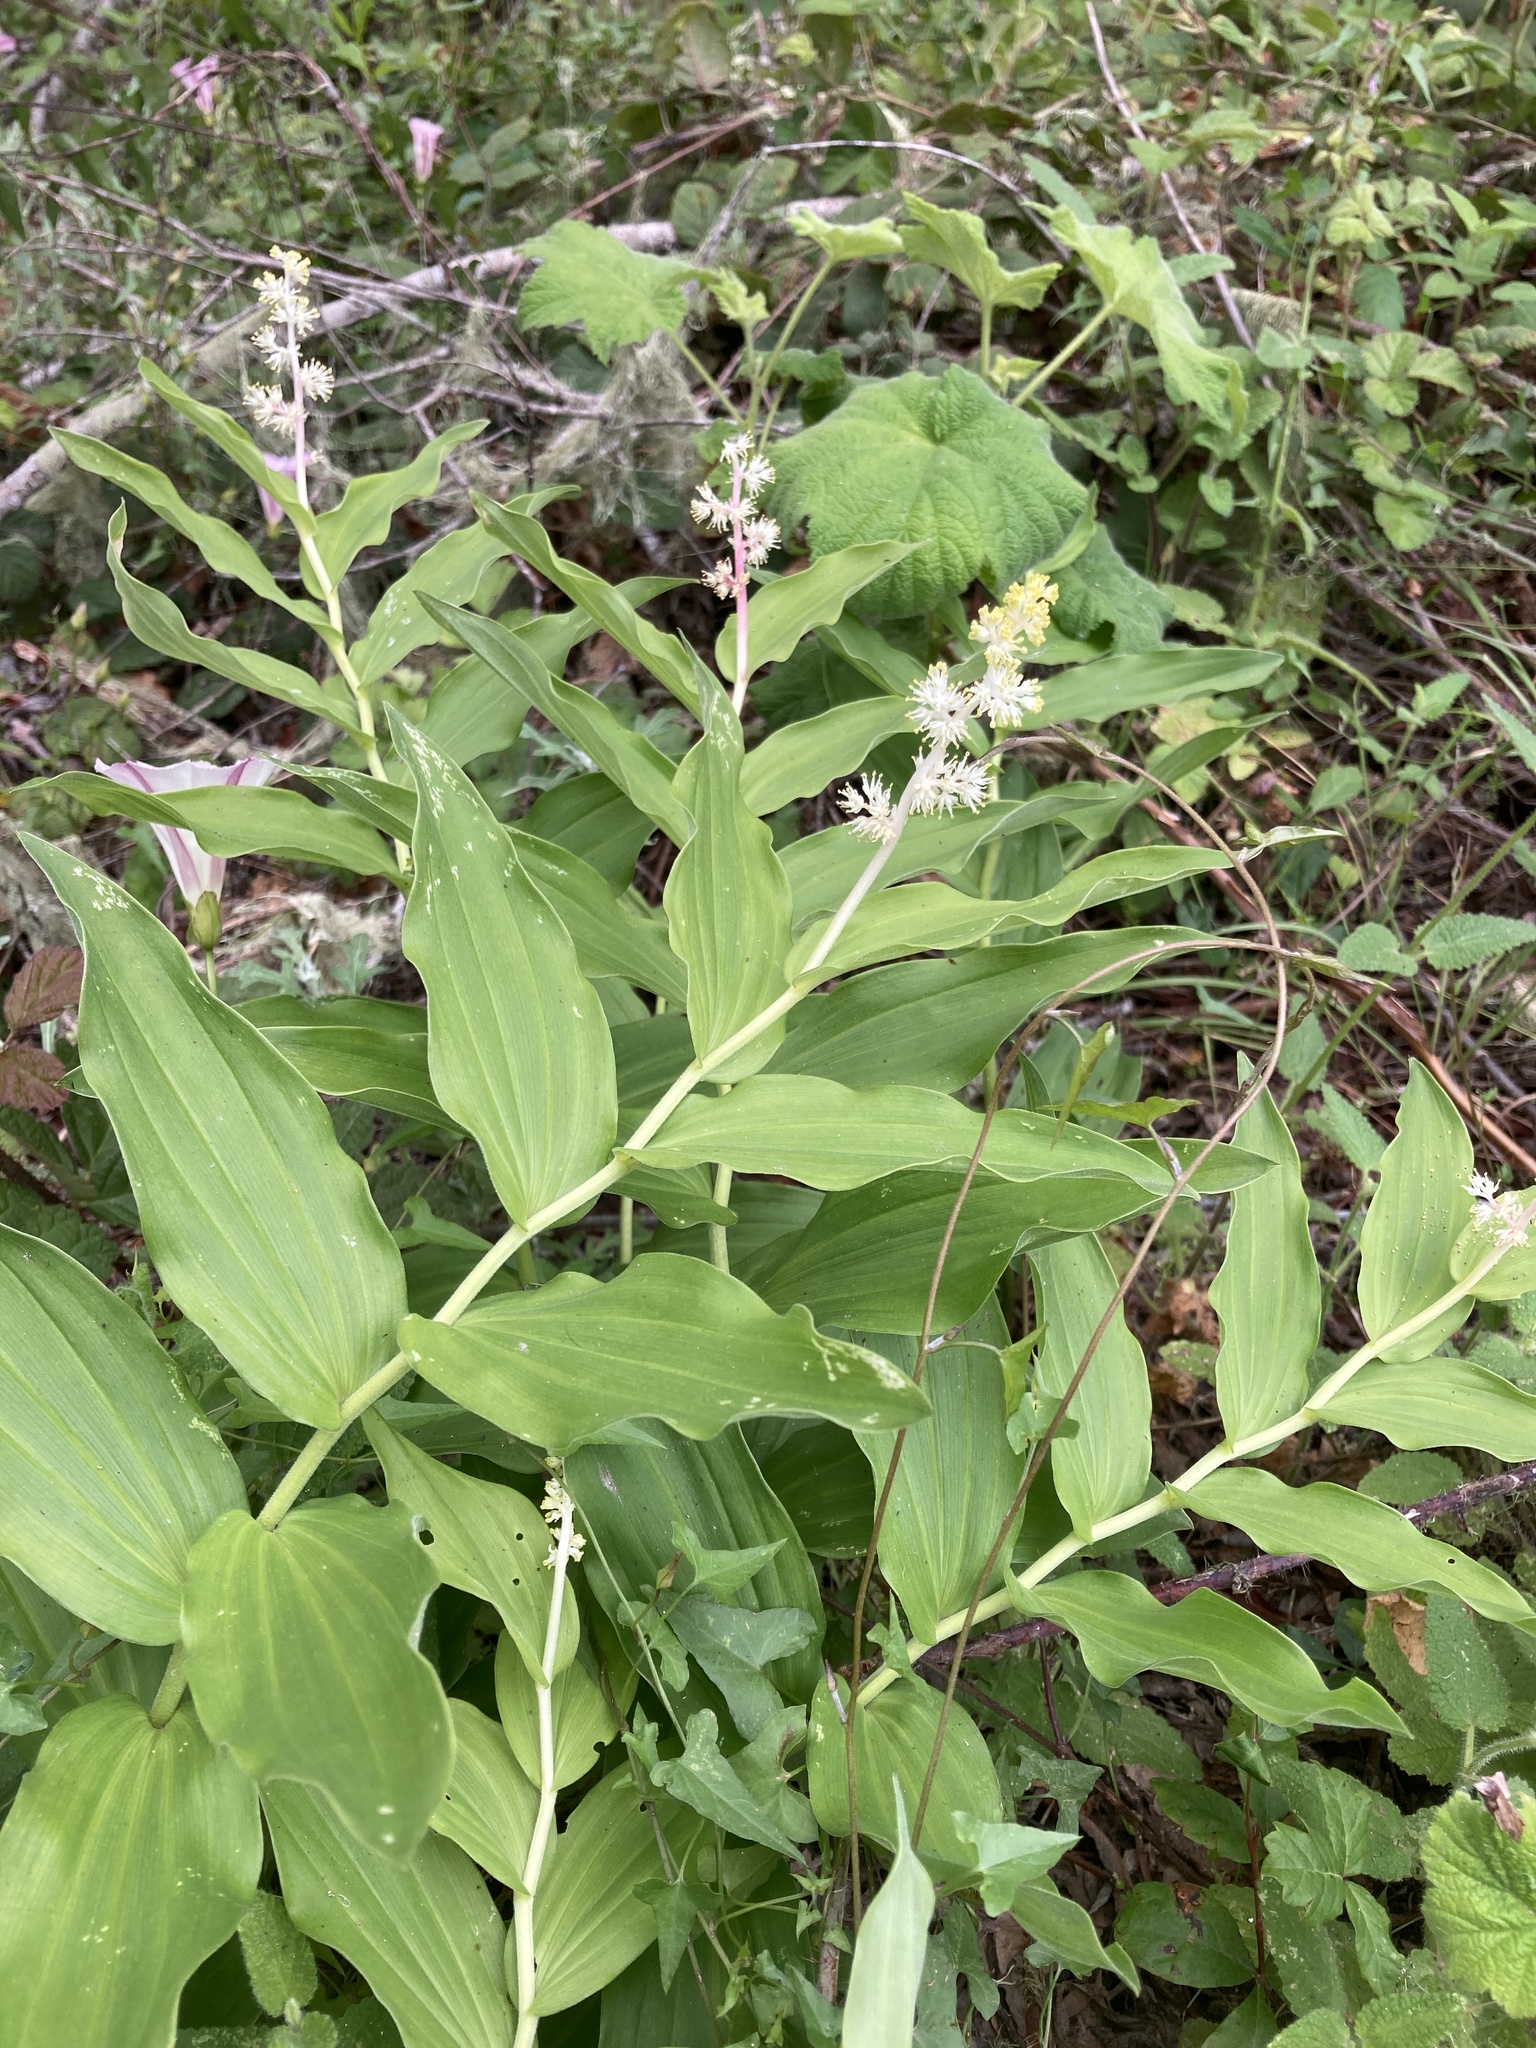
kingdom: Plantae
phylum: Tracheophyta
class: Liliopsida
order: Asparagales
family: Asparagaceae
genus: Maianthemum
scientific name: Maianthemum racemosum
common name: False spikenard
